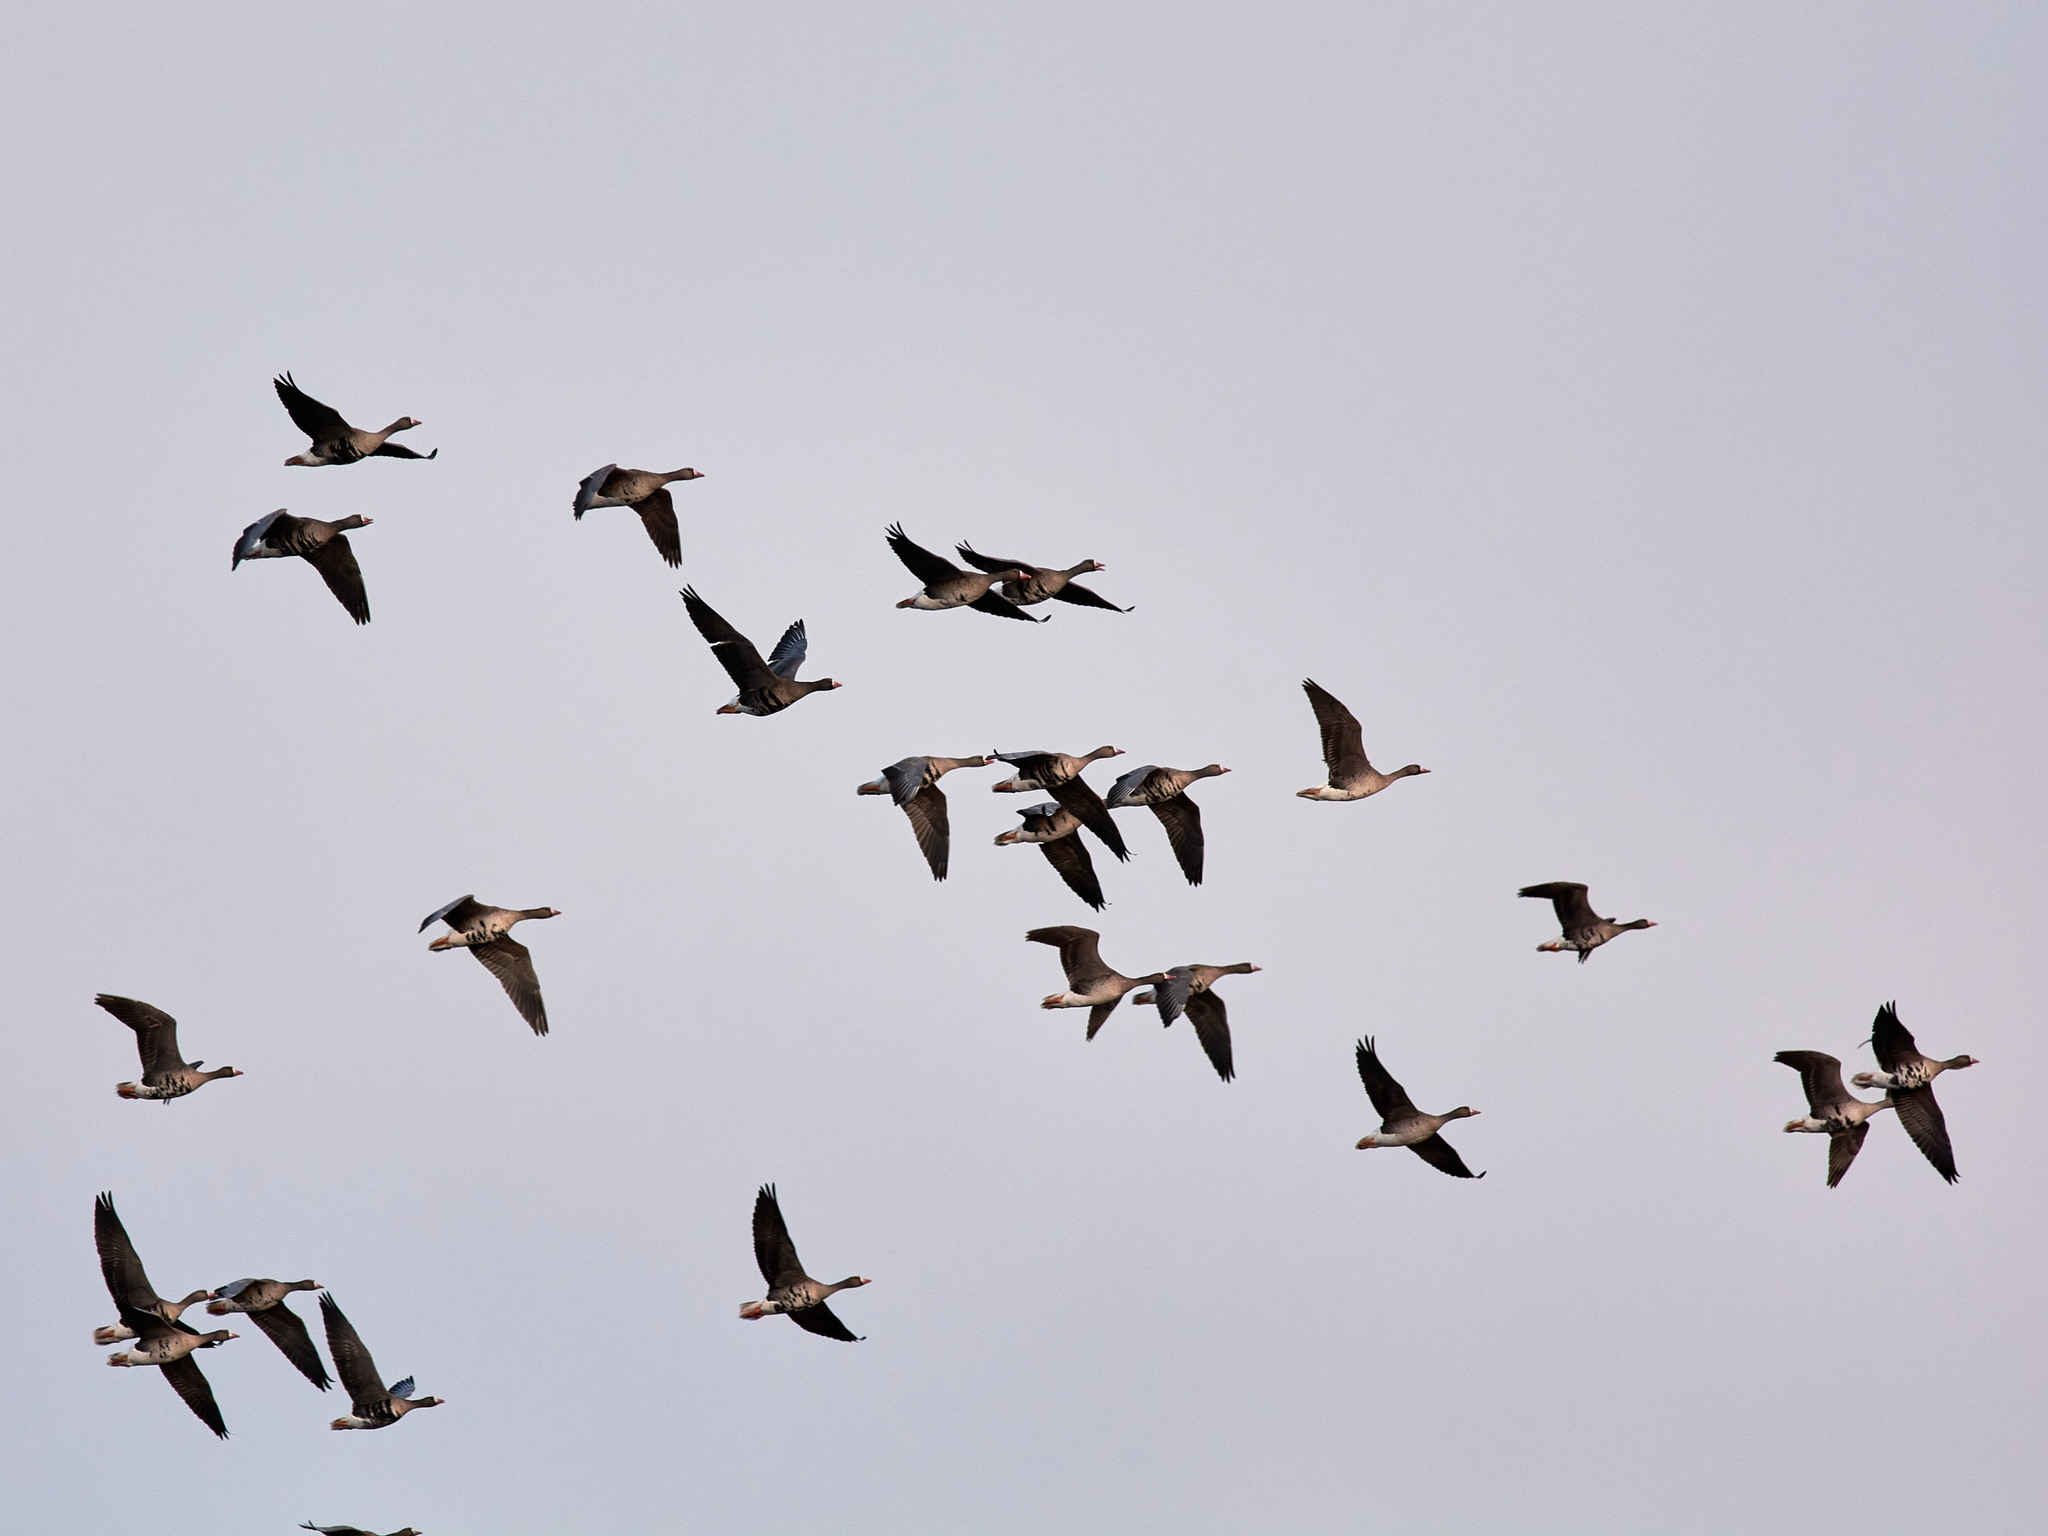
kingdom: Animalia
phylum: Chordata
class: Aves
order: Anseriformes
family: Anatidae
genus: Anser
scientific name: Anser albifrons
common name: Greater white-fronted goose
